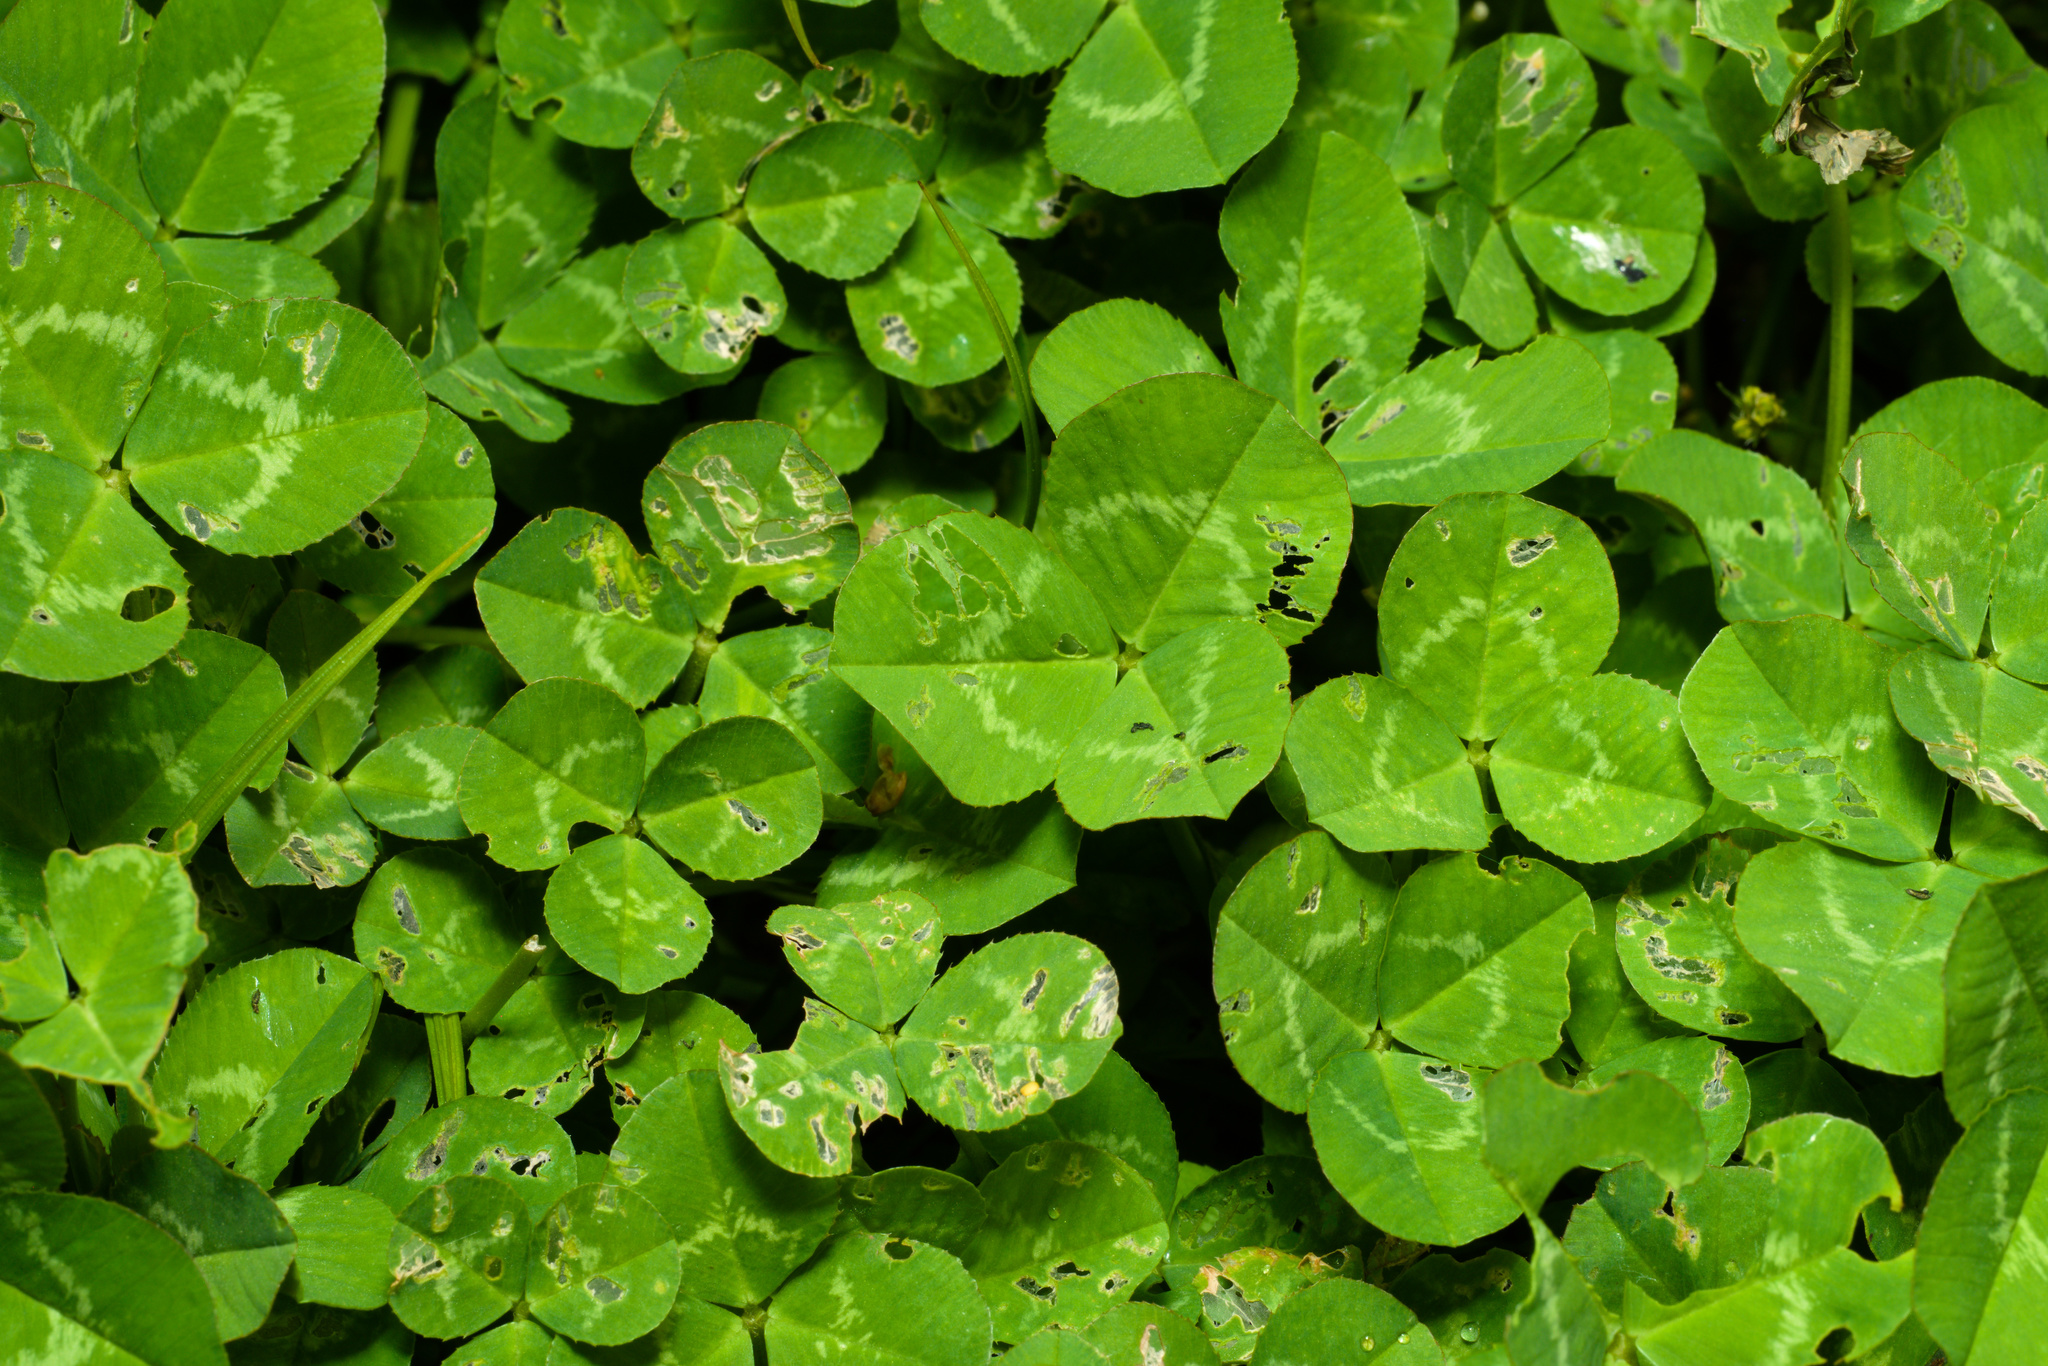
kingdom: Plantae
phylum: Tracheophyta
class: Magnoliopsida
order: Fabales
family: Fabaceae
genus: Trifolium
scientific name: Trifolium repens
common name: White clover
